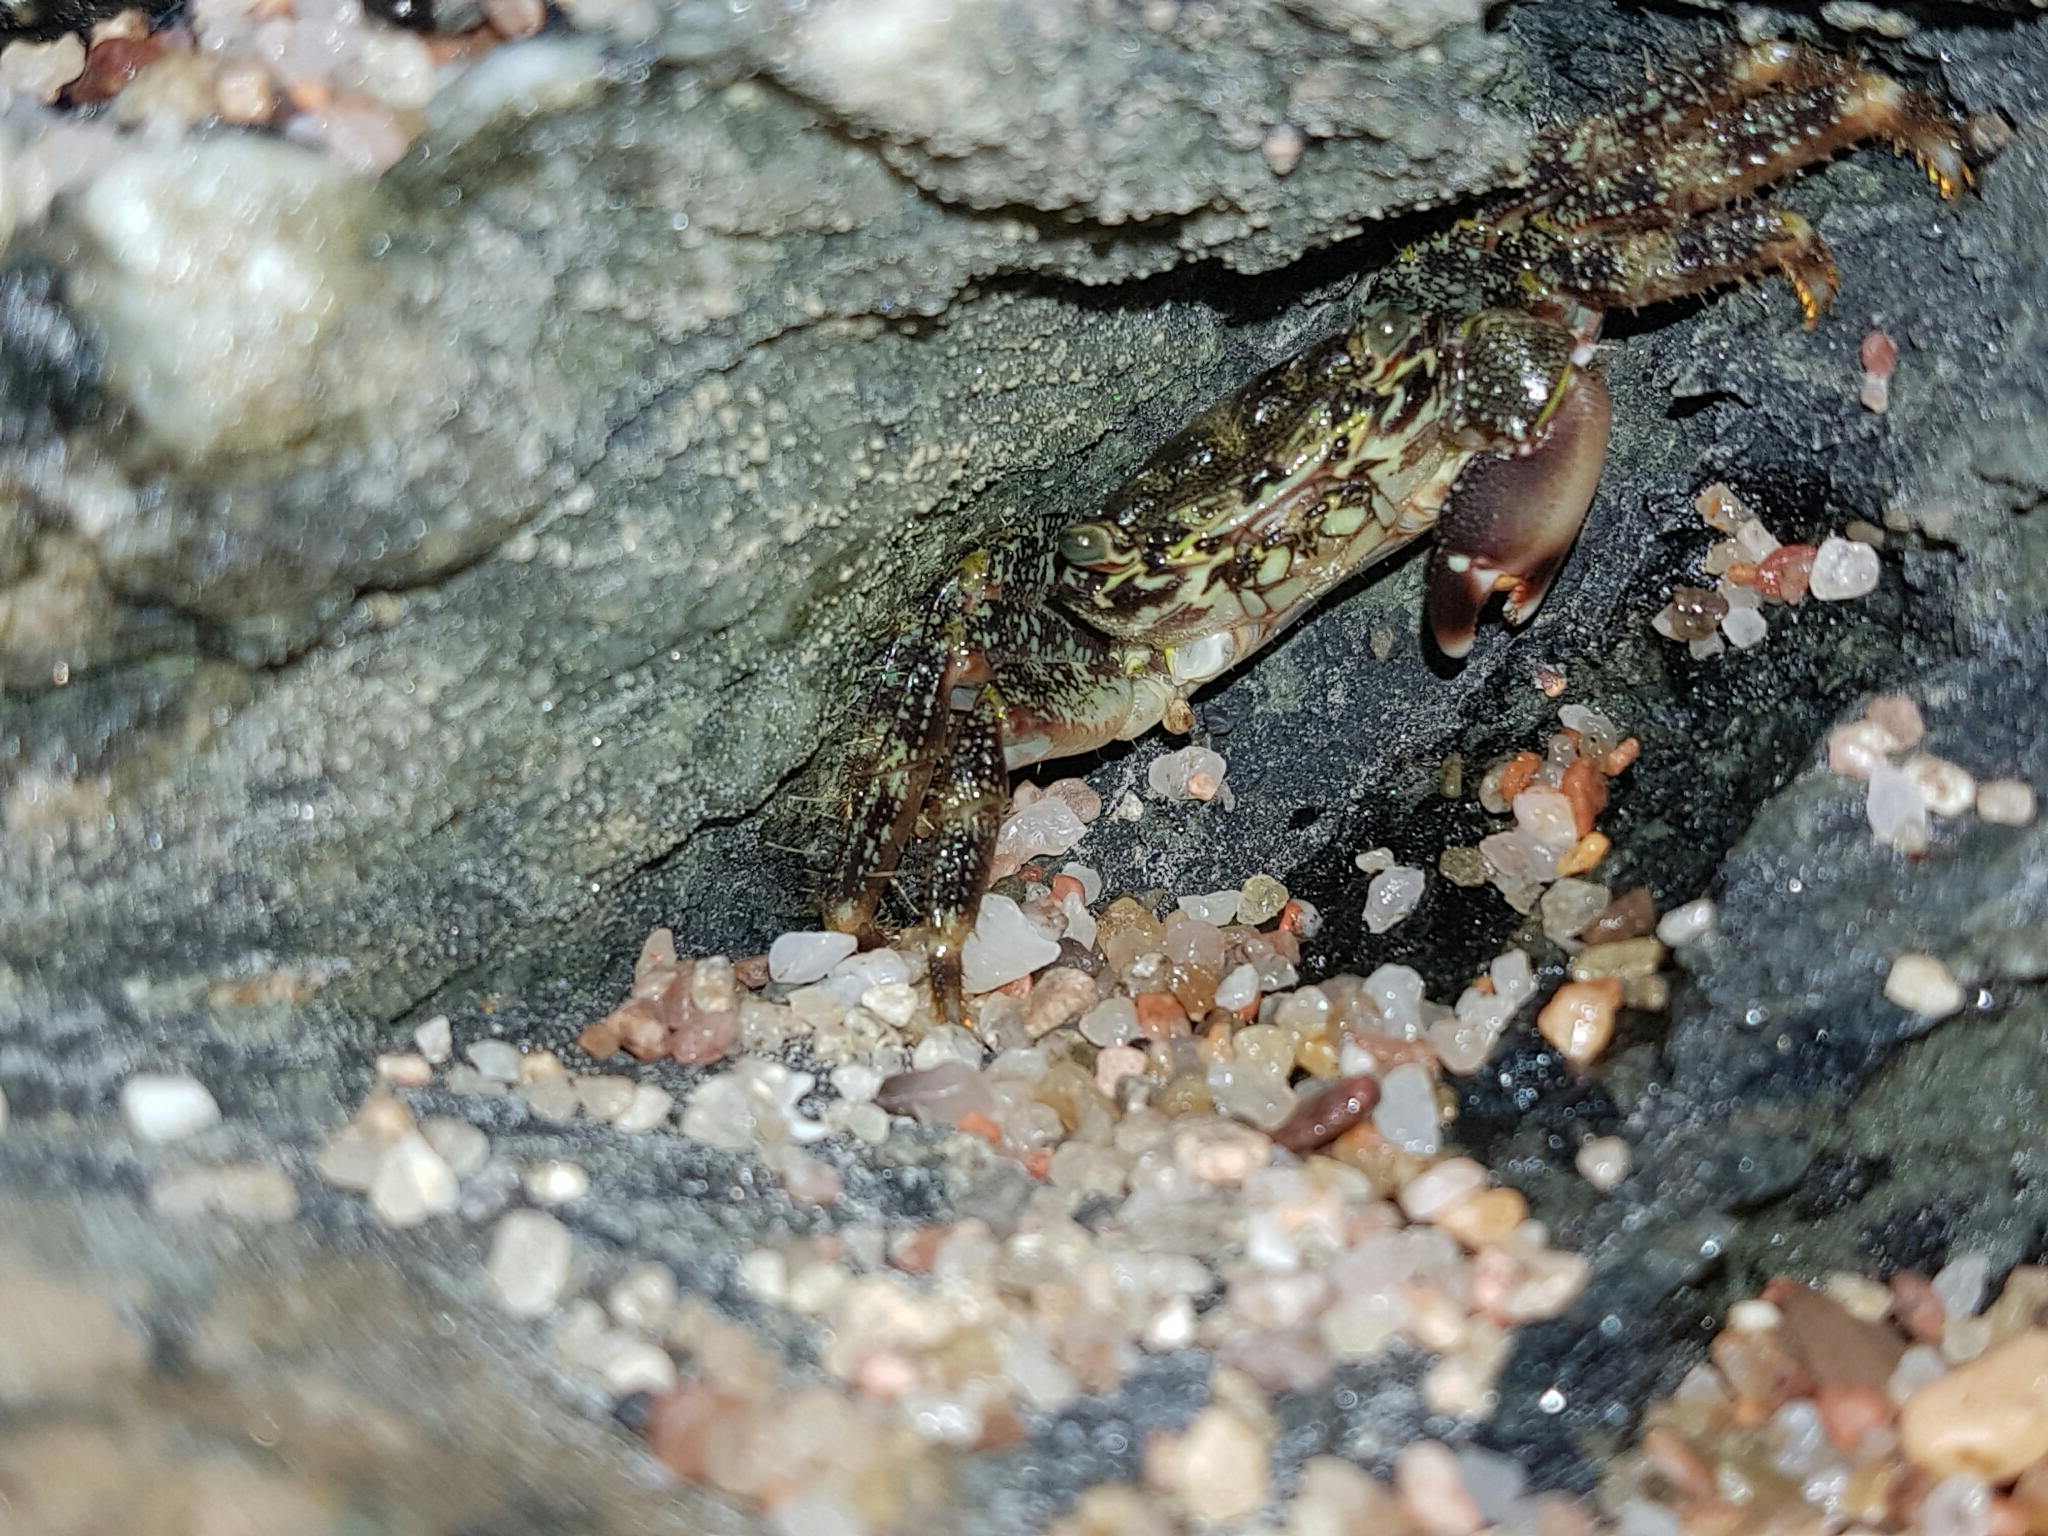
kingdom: Animalia
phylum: Arthropoda
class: Malacostraca
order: Decapoda
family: Grapsidae
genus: Pachygrapsus
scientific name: Pachygrapsus marmoratus
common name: Marbled rock crab
